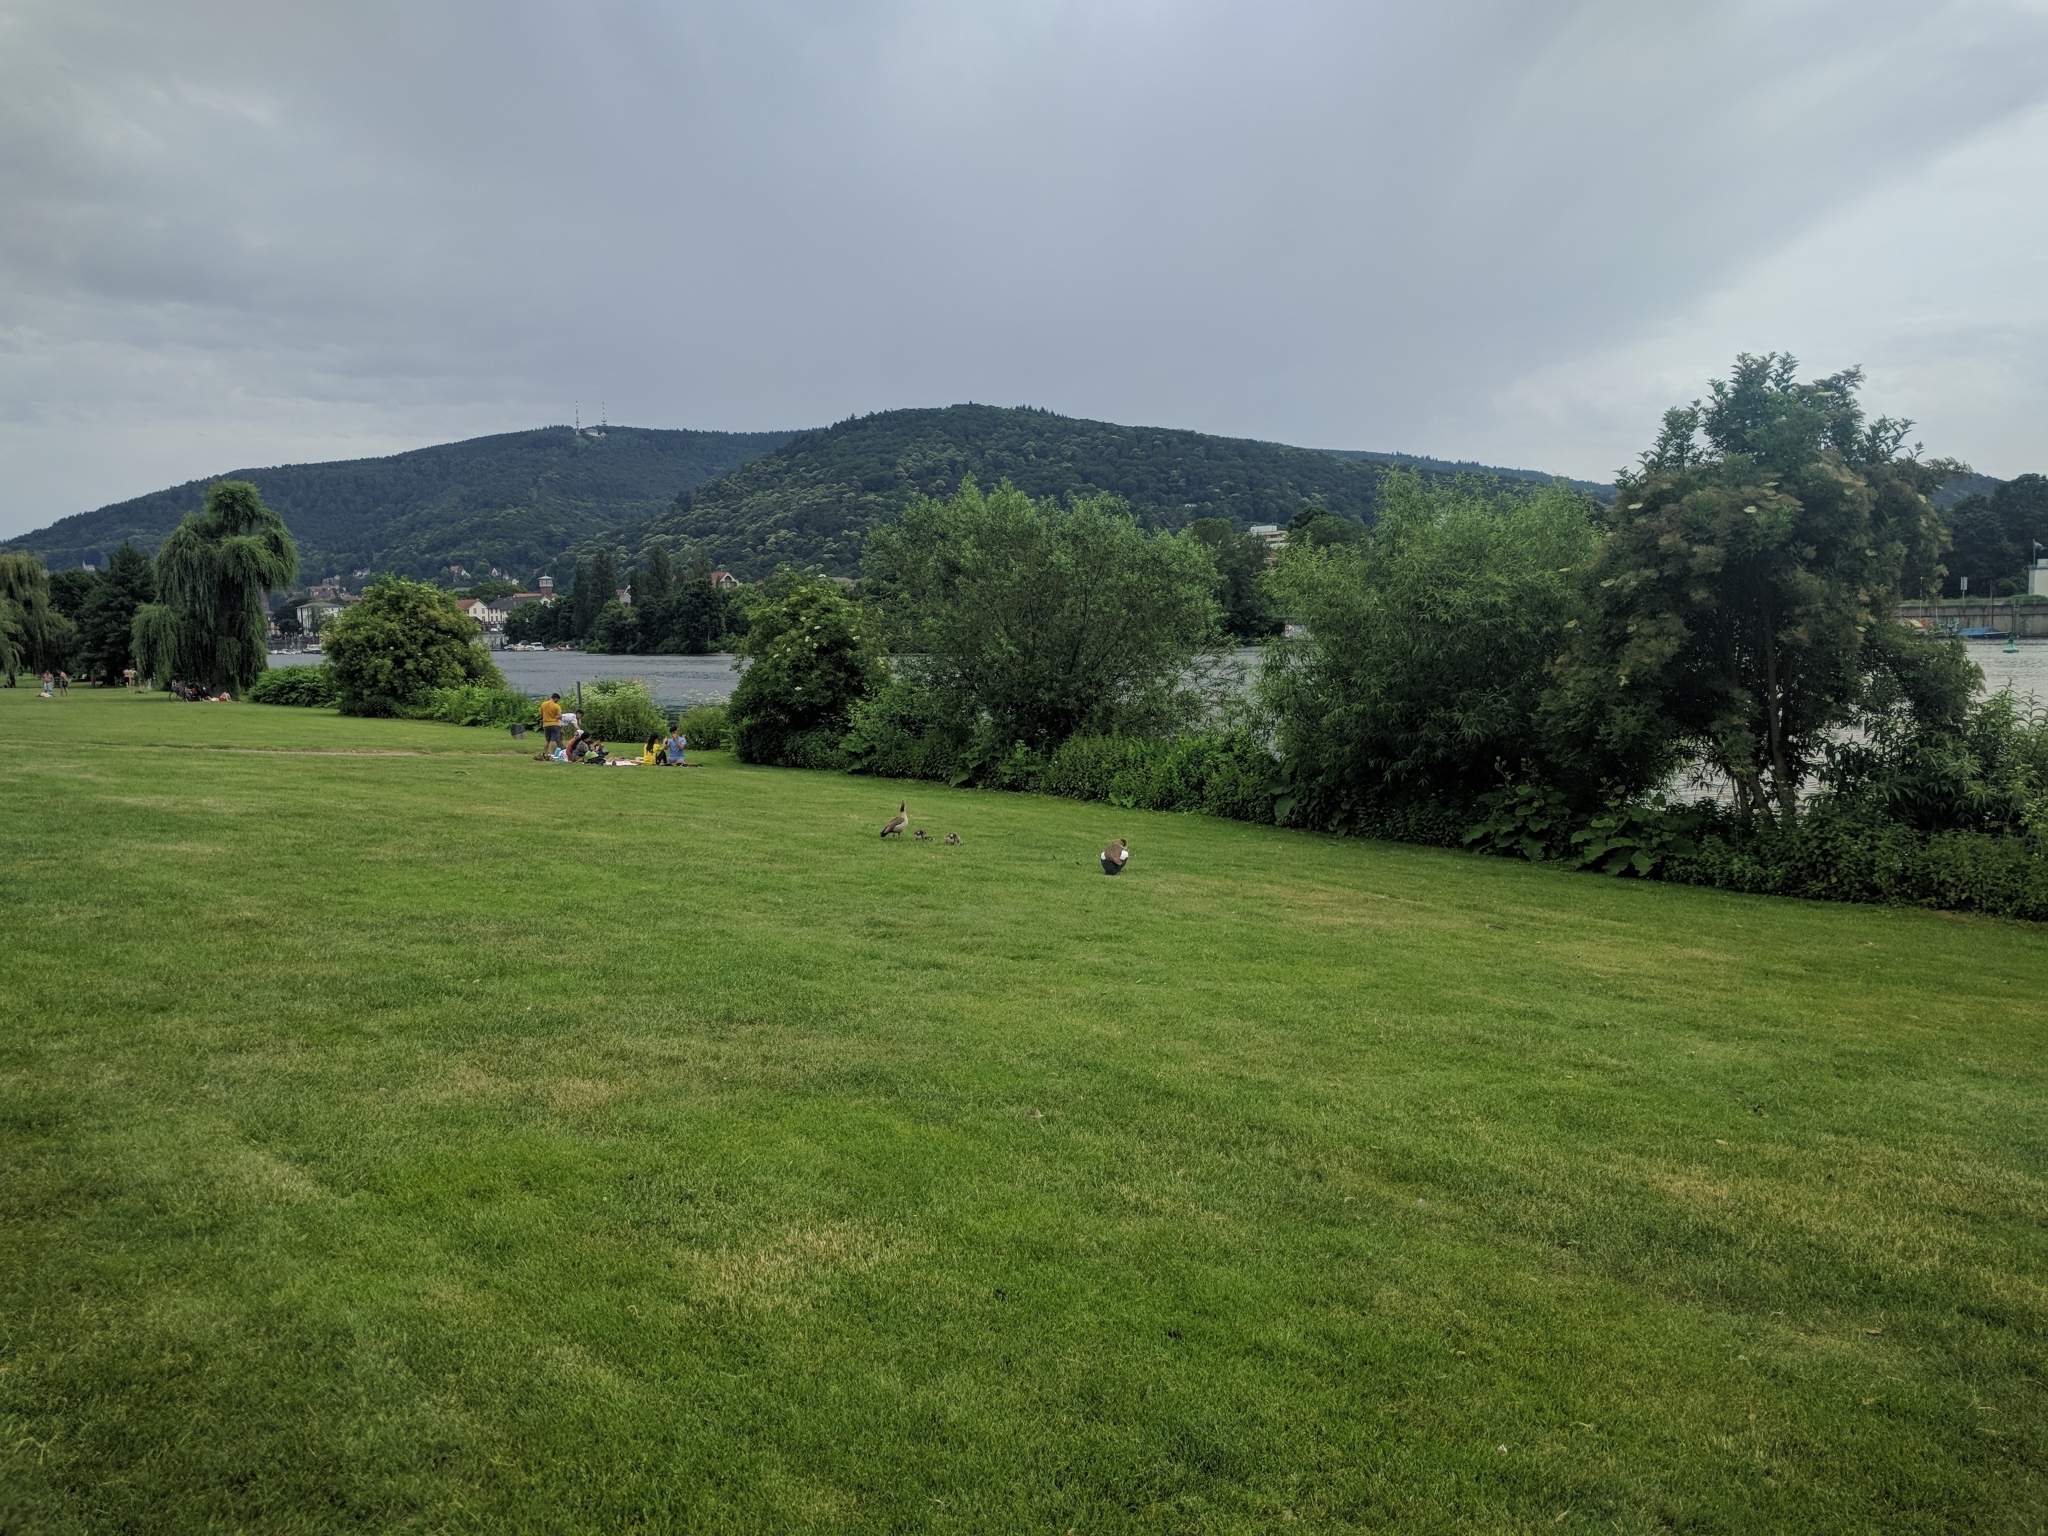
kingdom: Animalia
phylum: Chordata
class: Aves
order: Anseriformes
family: Anatidae
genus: Alopochen
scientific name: Alopochen aegyptiaca
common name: Egyptian goose
